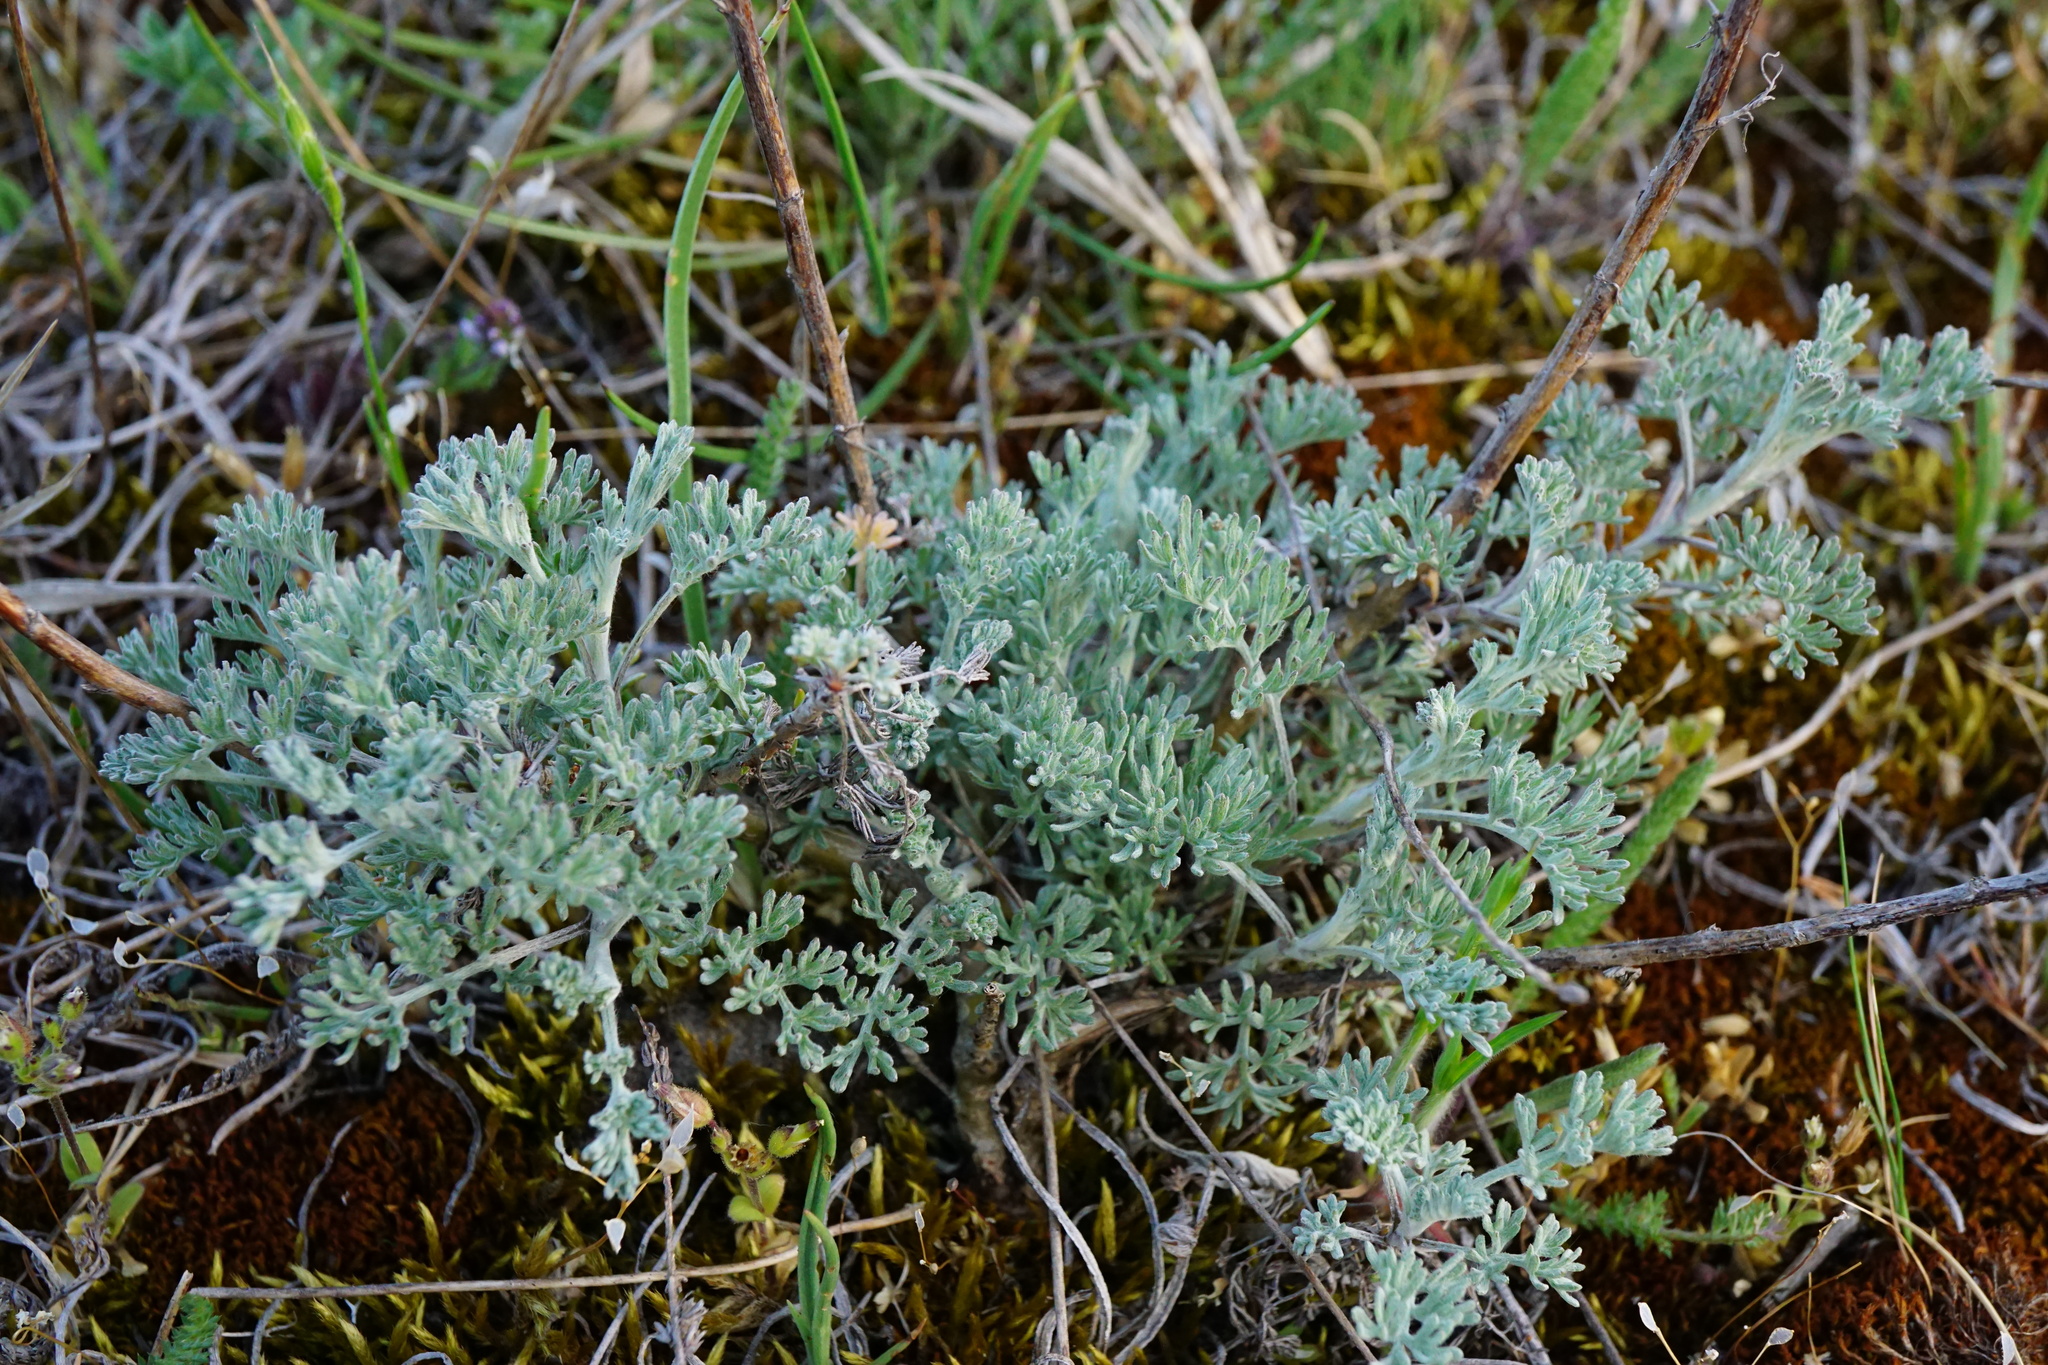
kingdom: Plantae
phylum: Tracheophyta
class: Magnoliopsida
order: Asterales
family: Asteraceae
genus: Artemisia
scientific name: Artemisia santonicum
